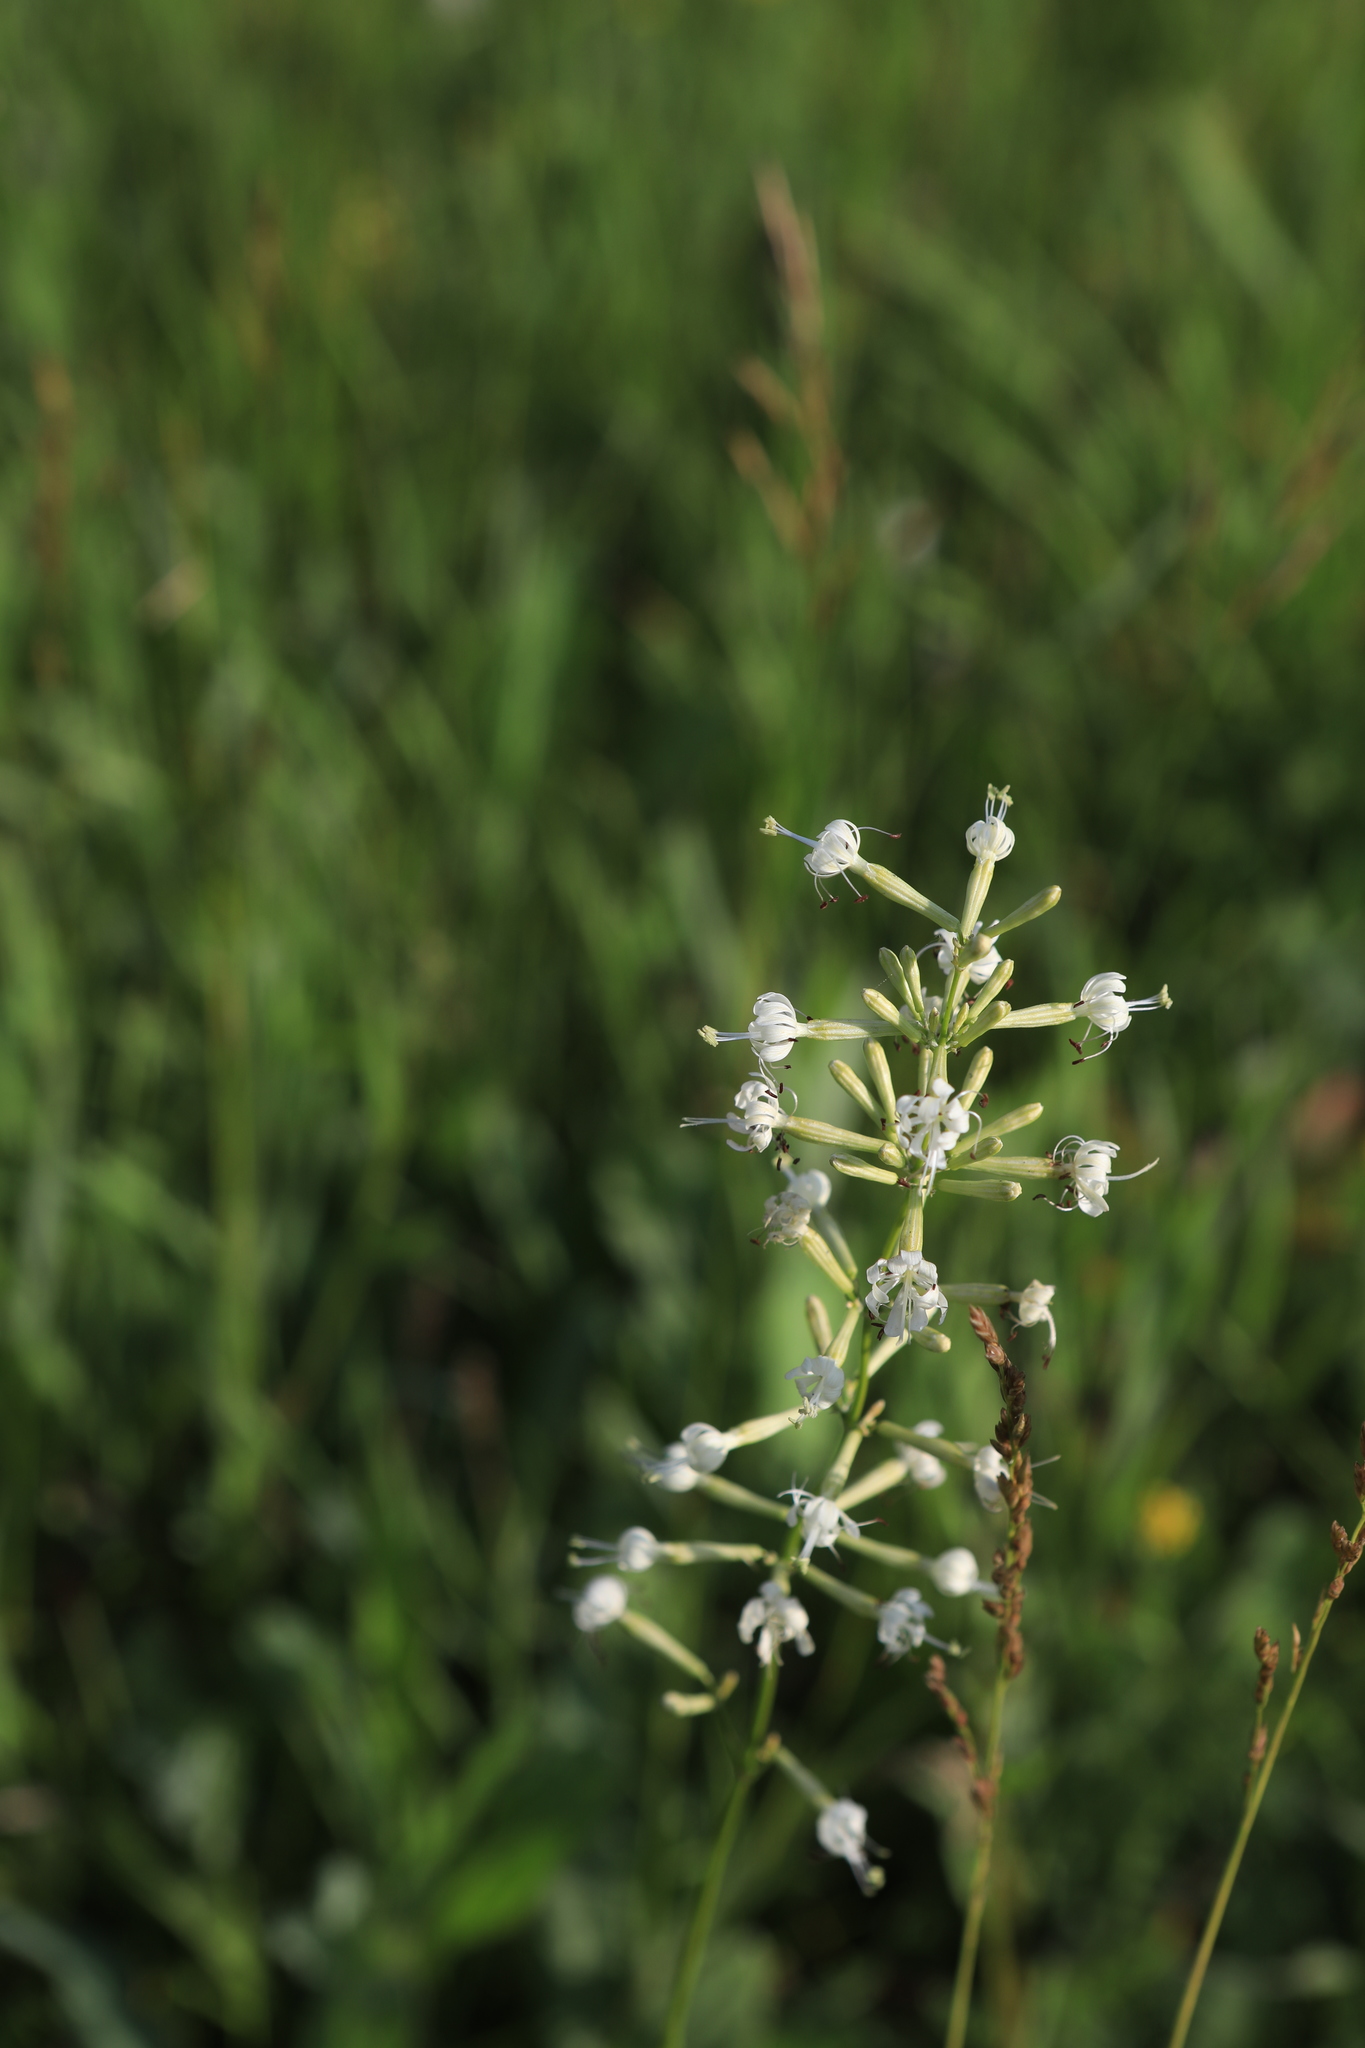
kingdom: Plantae
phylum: Tracheophyta
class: Magnoliopsida
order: Caryophyllales
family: Caryophyllaceae
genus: Silene
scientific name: Silene multiflora
